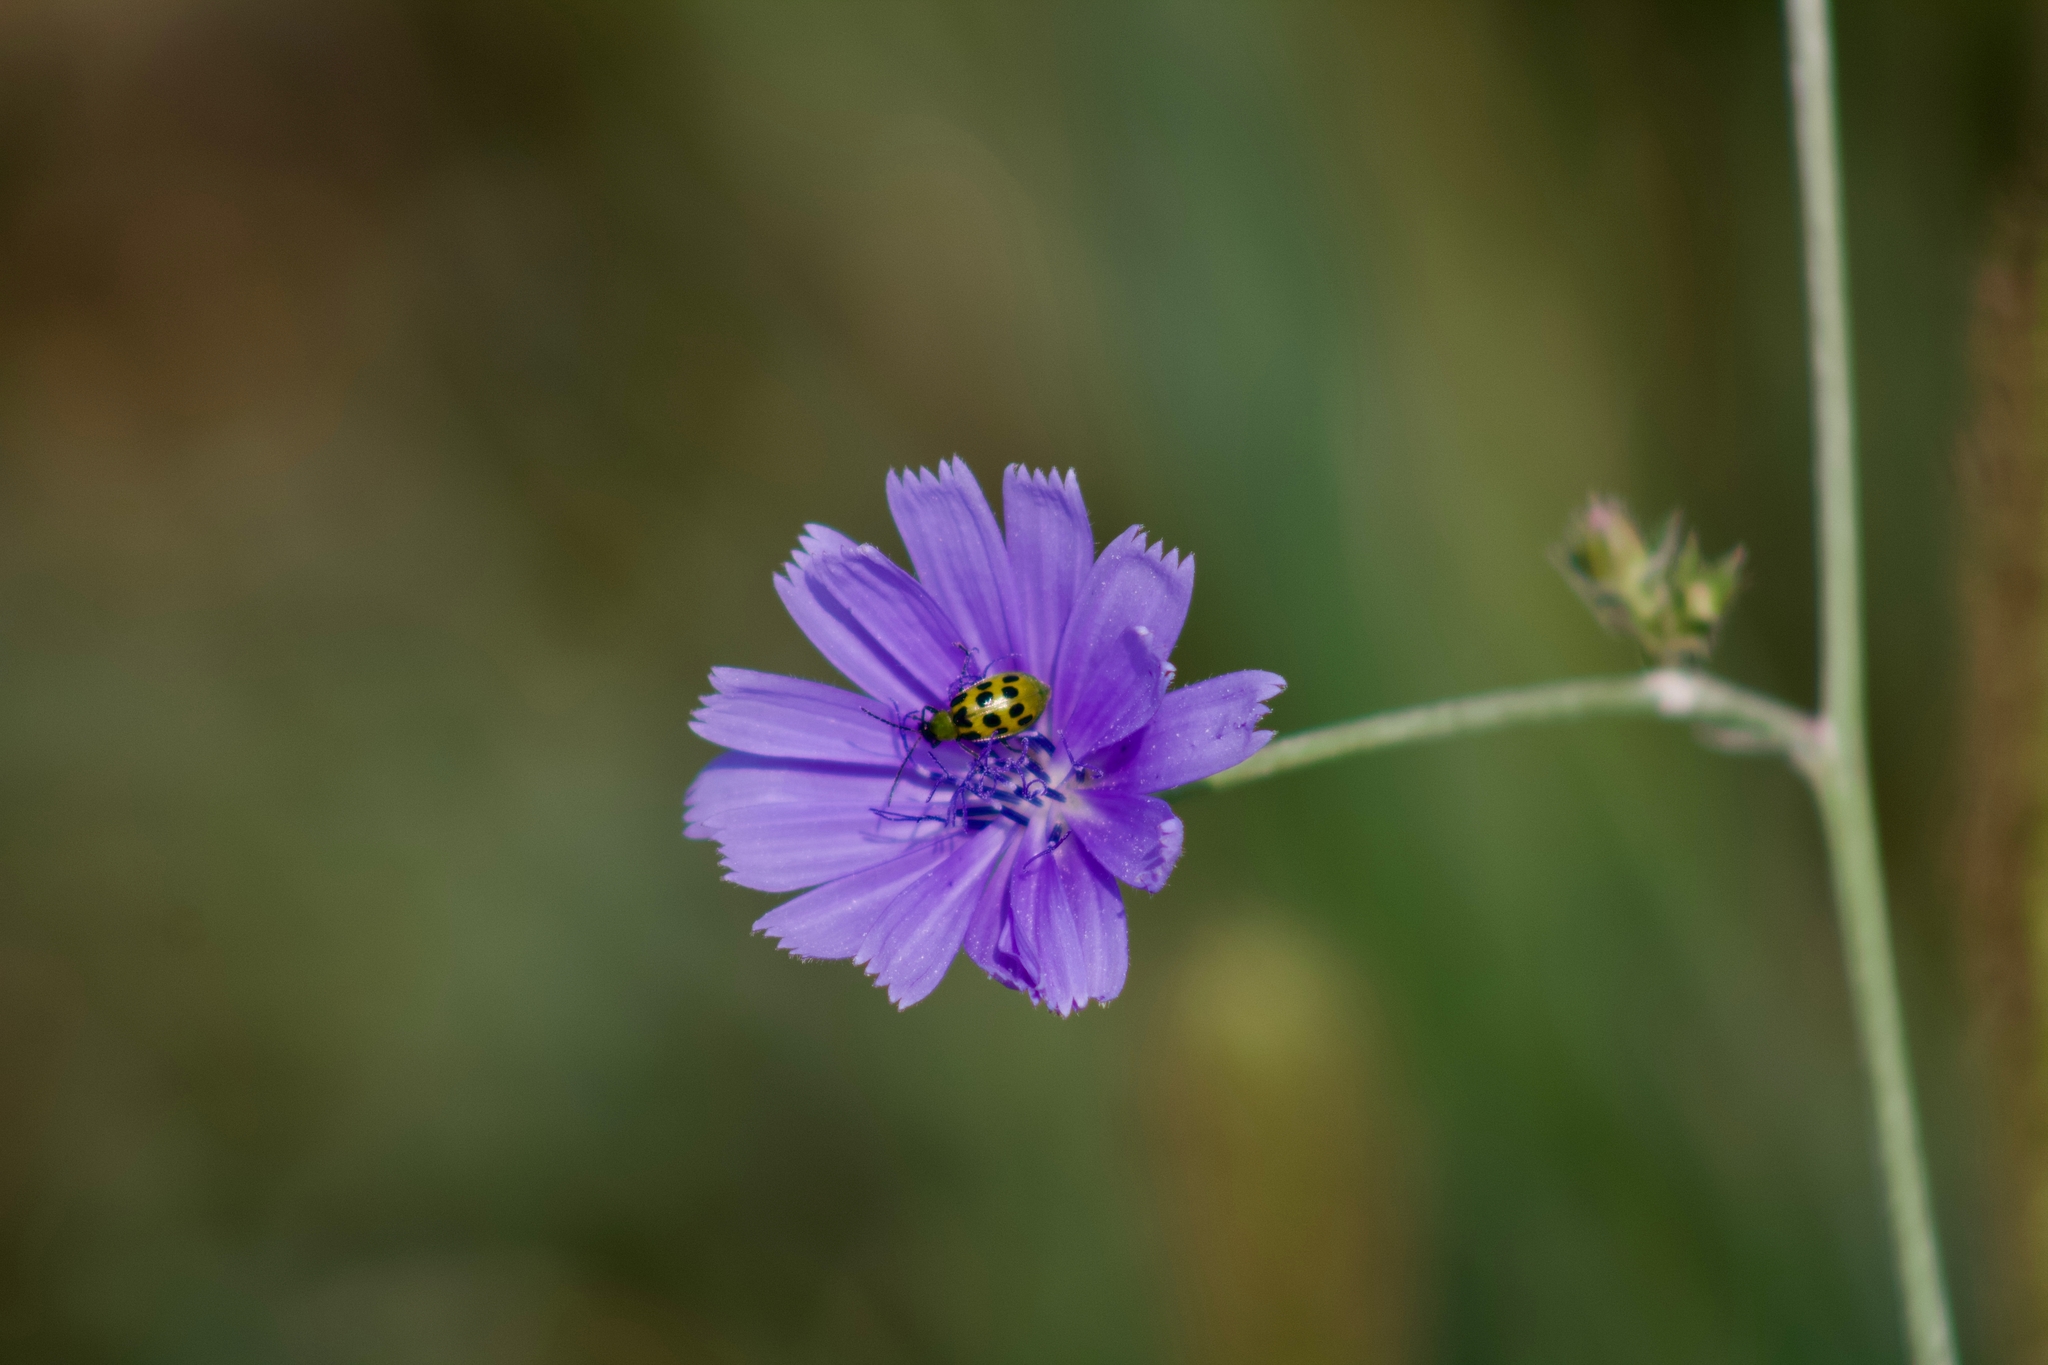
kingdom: Animalia
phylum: Arthropoda
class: Insecta
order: Coleoptera
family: Chrysomelidae
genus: Diabrotica
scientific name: Diabrotica undecimpunctata
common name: Spotted cucumber beetle
